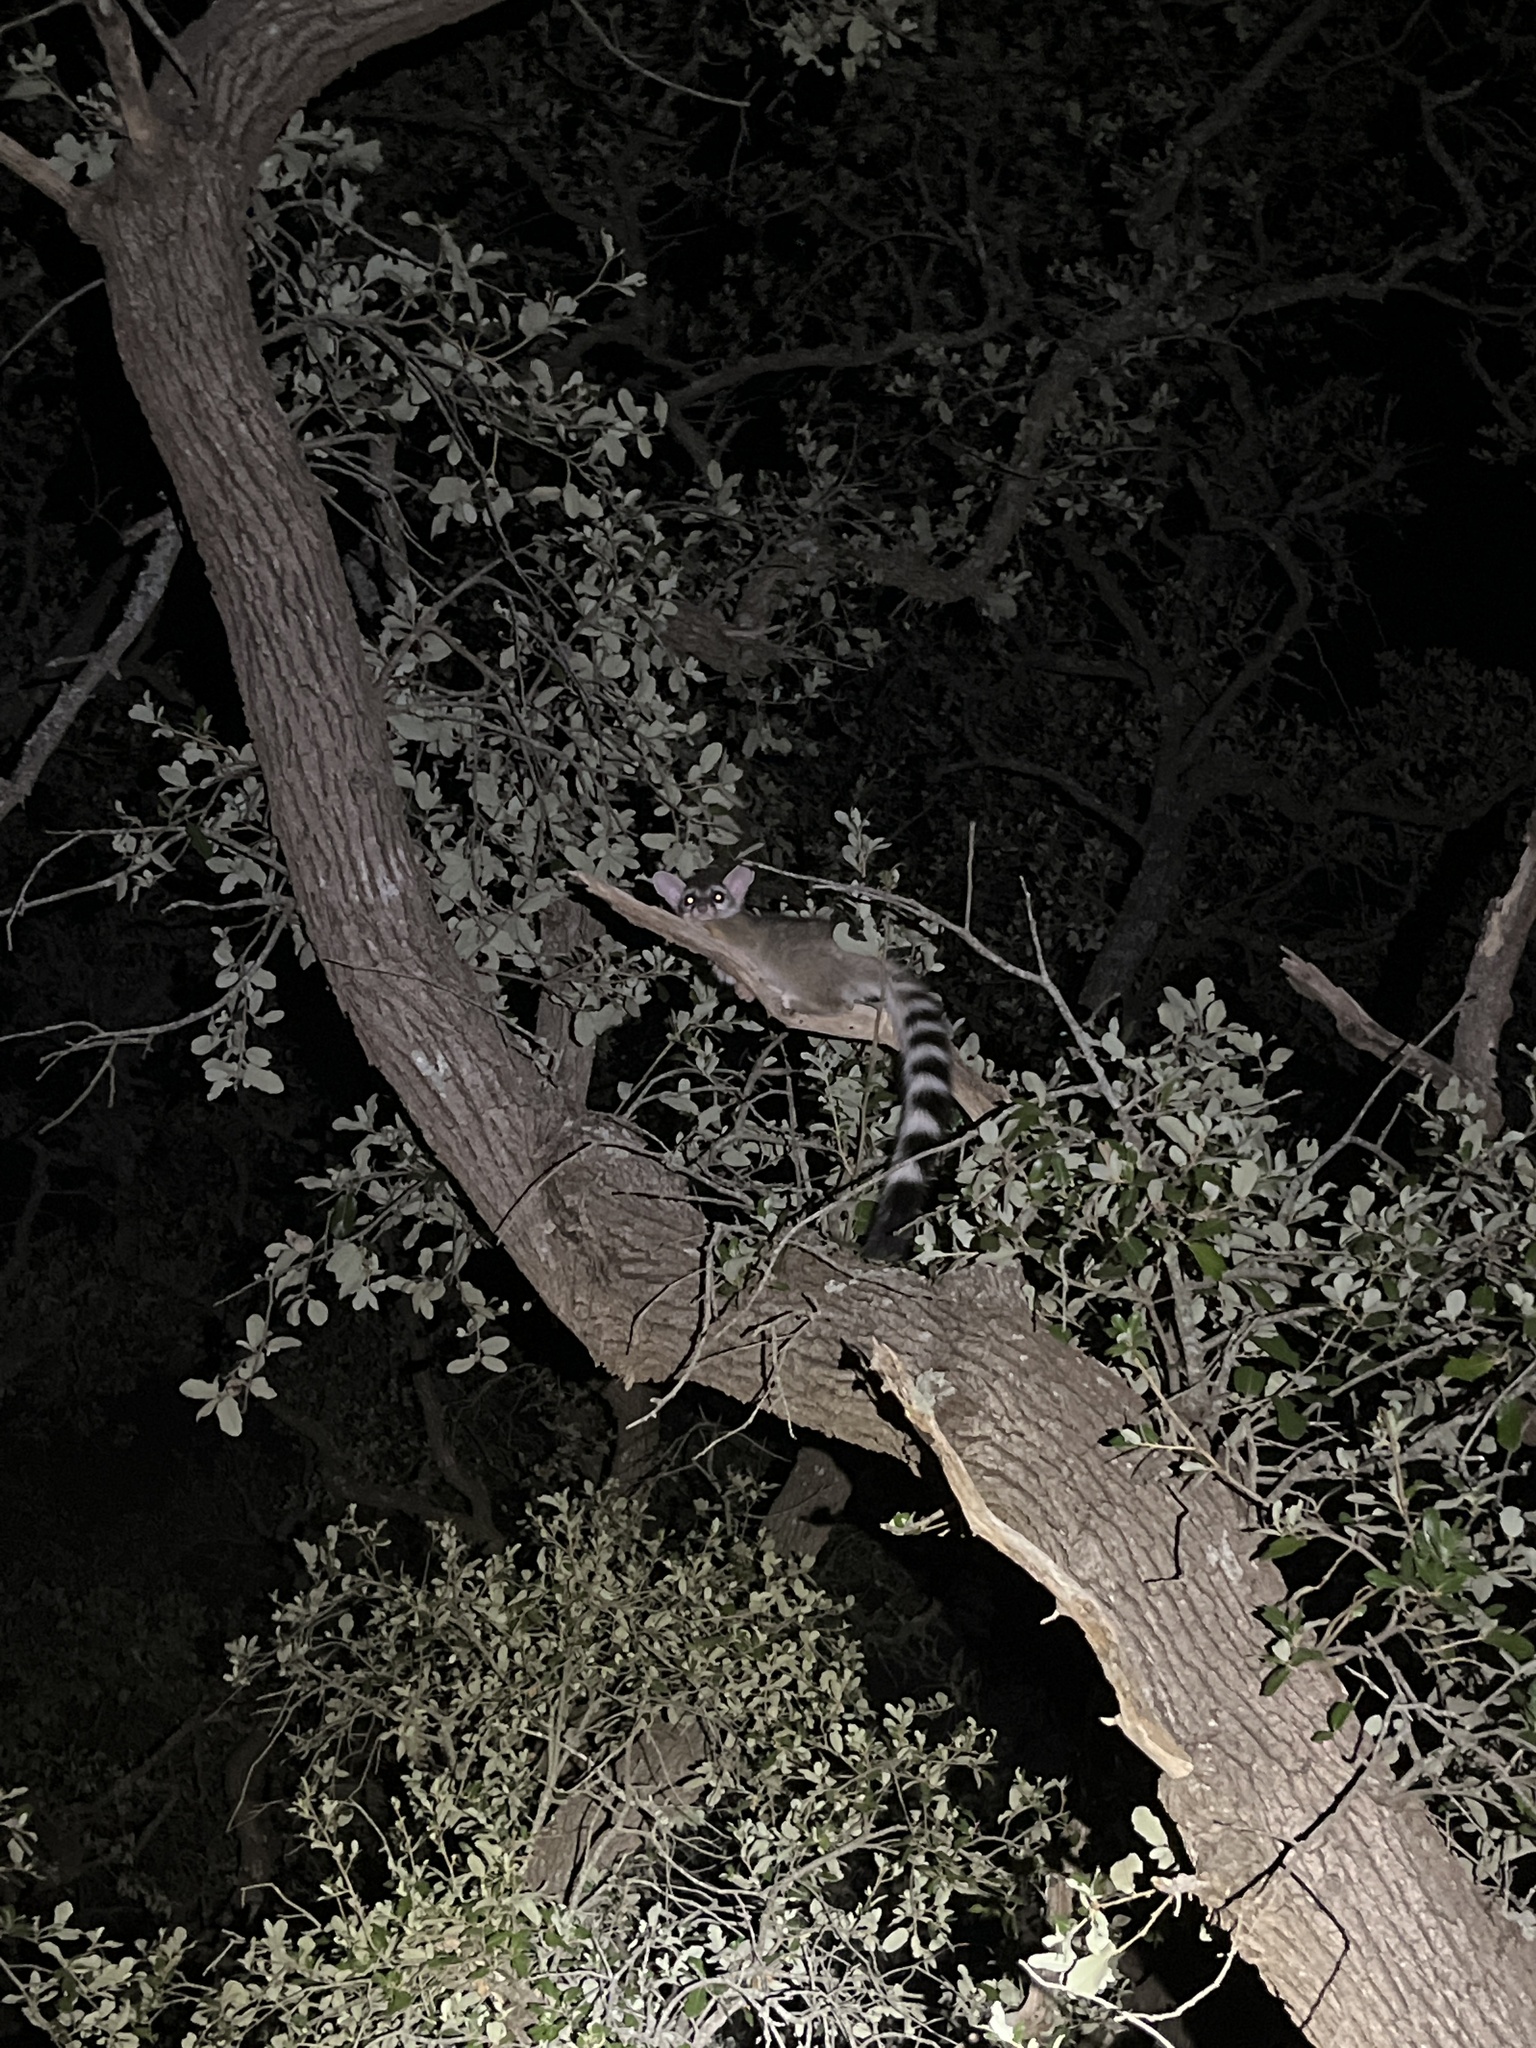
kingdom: Animalia
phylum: Chordata
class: Mammalia
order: Carnivora
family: Procyonidae
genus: Bassariscus
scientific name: Bassariscus astutus
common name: Ringtail
